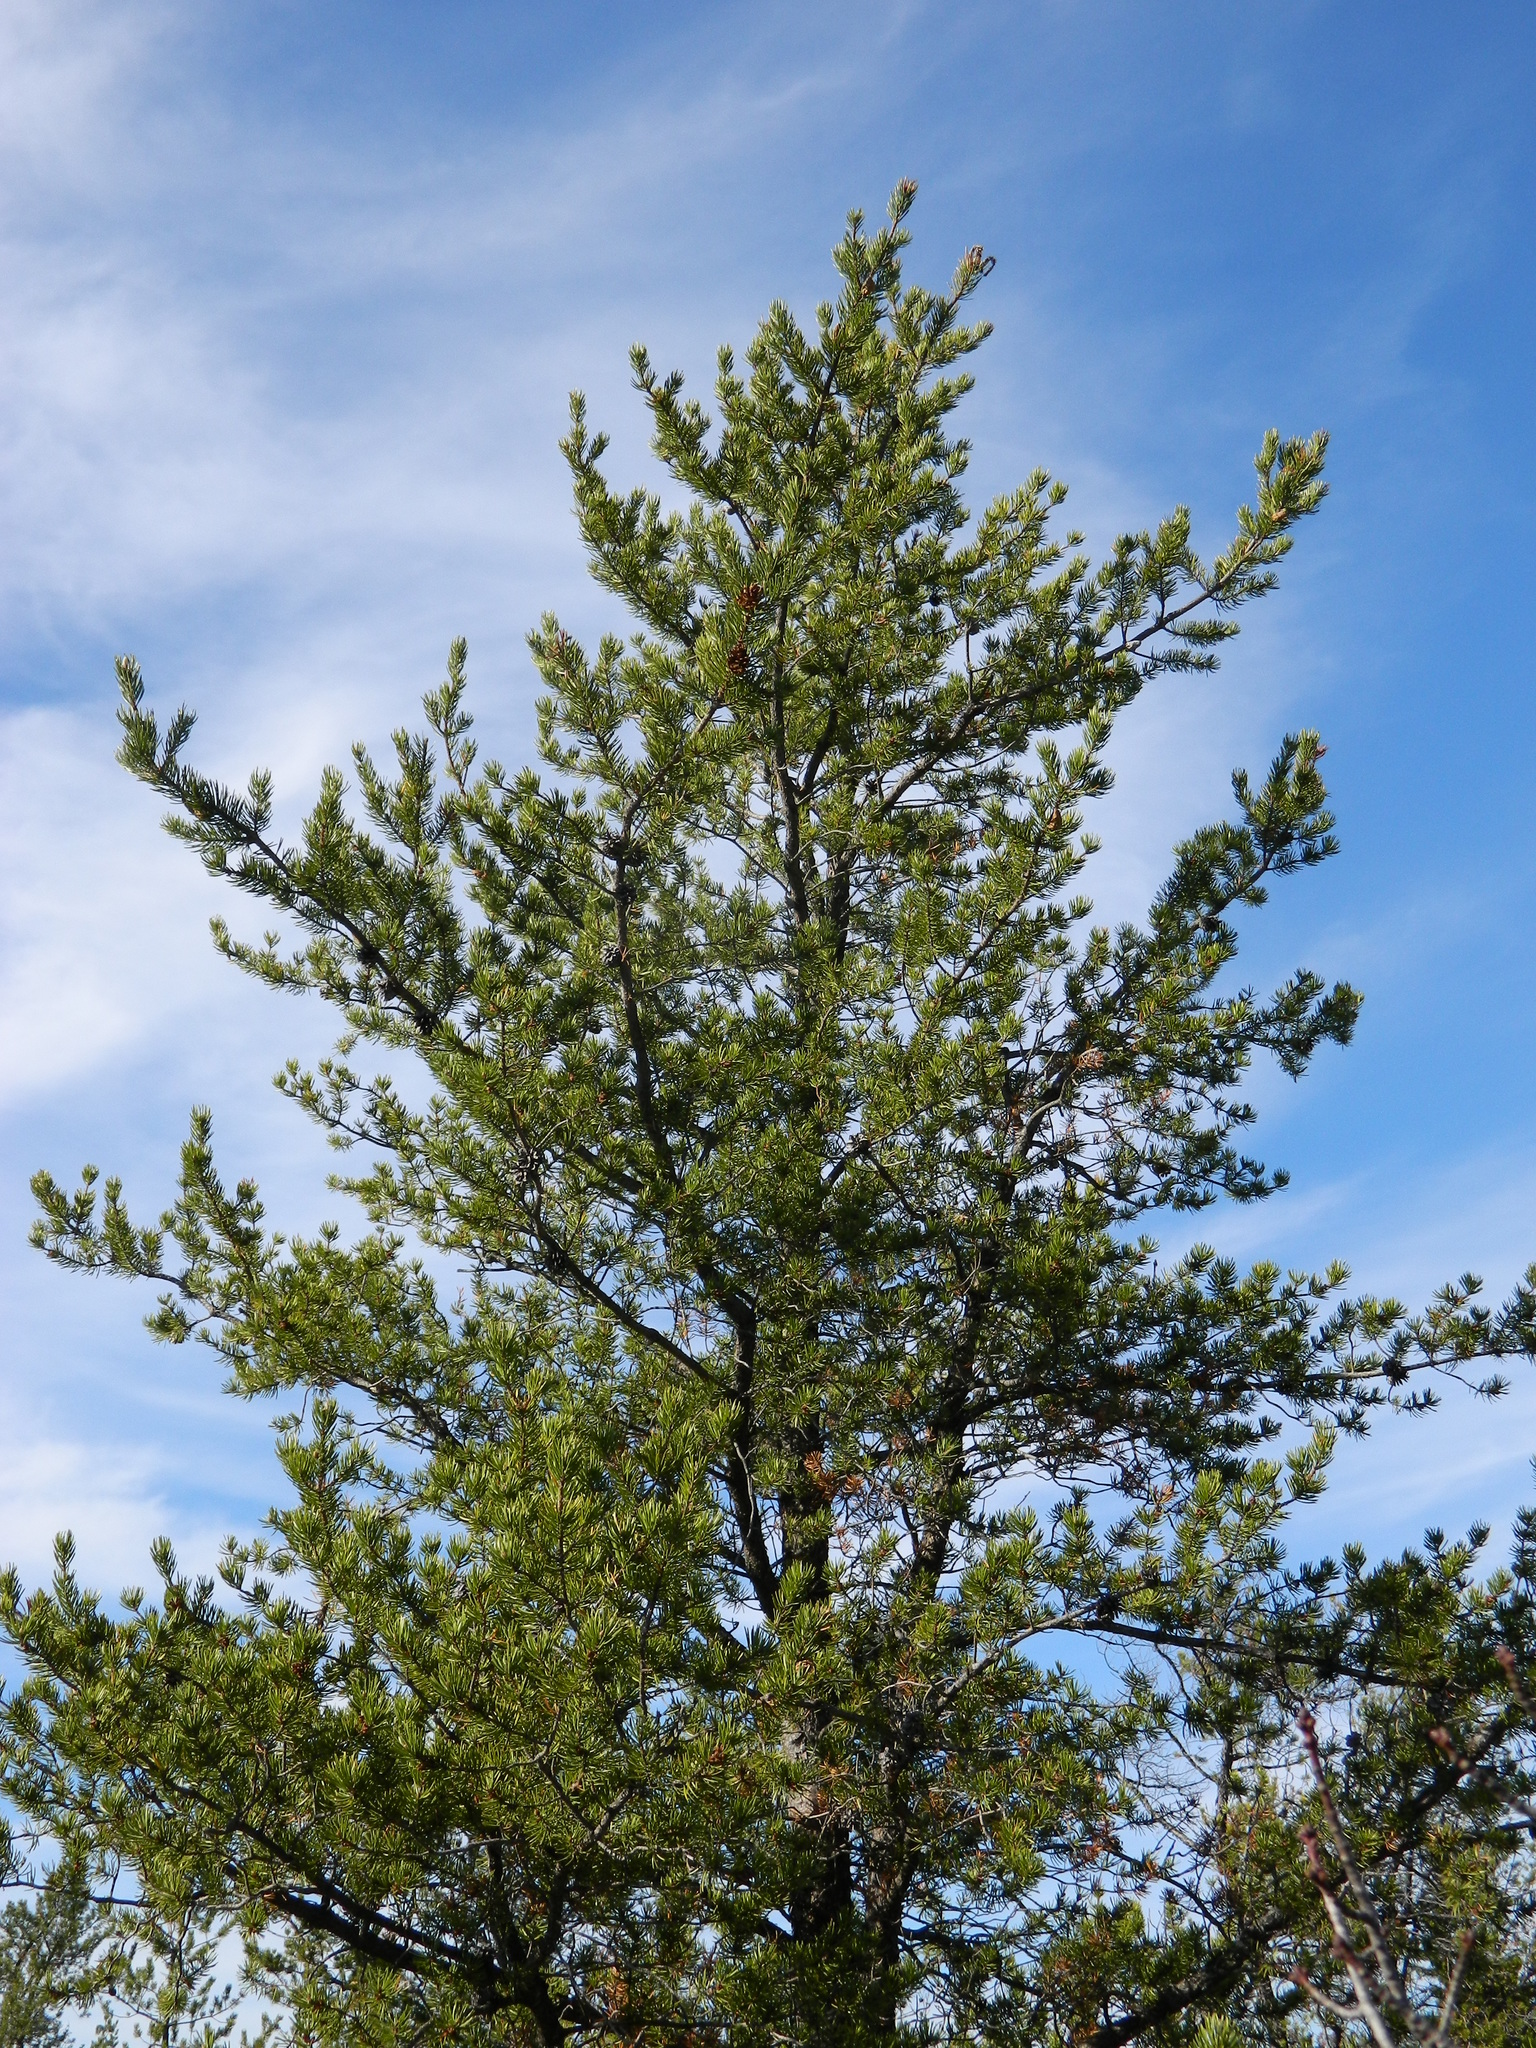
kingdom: Plantae
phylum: Tracheophyta
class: Pinopsida
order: Pinales
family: Pinaceae
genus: Pinus
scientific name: Pinus banksiana
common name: Jack pine
